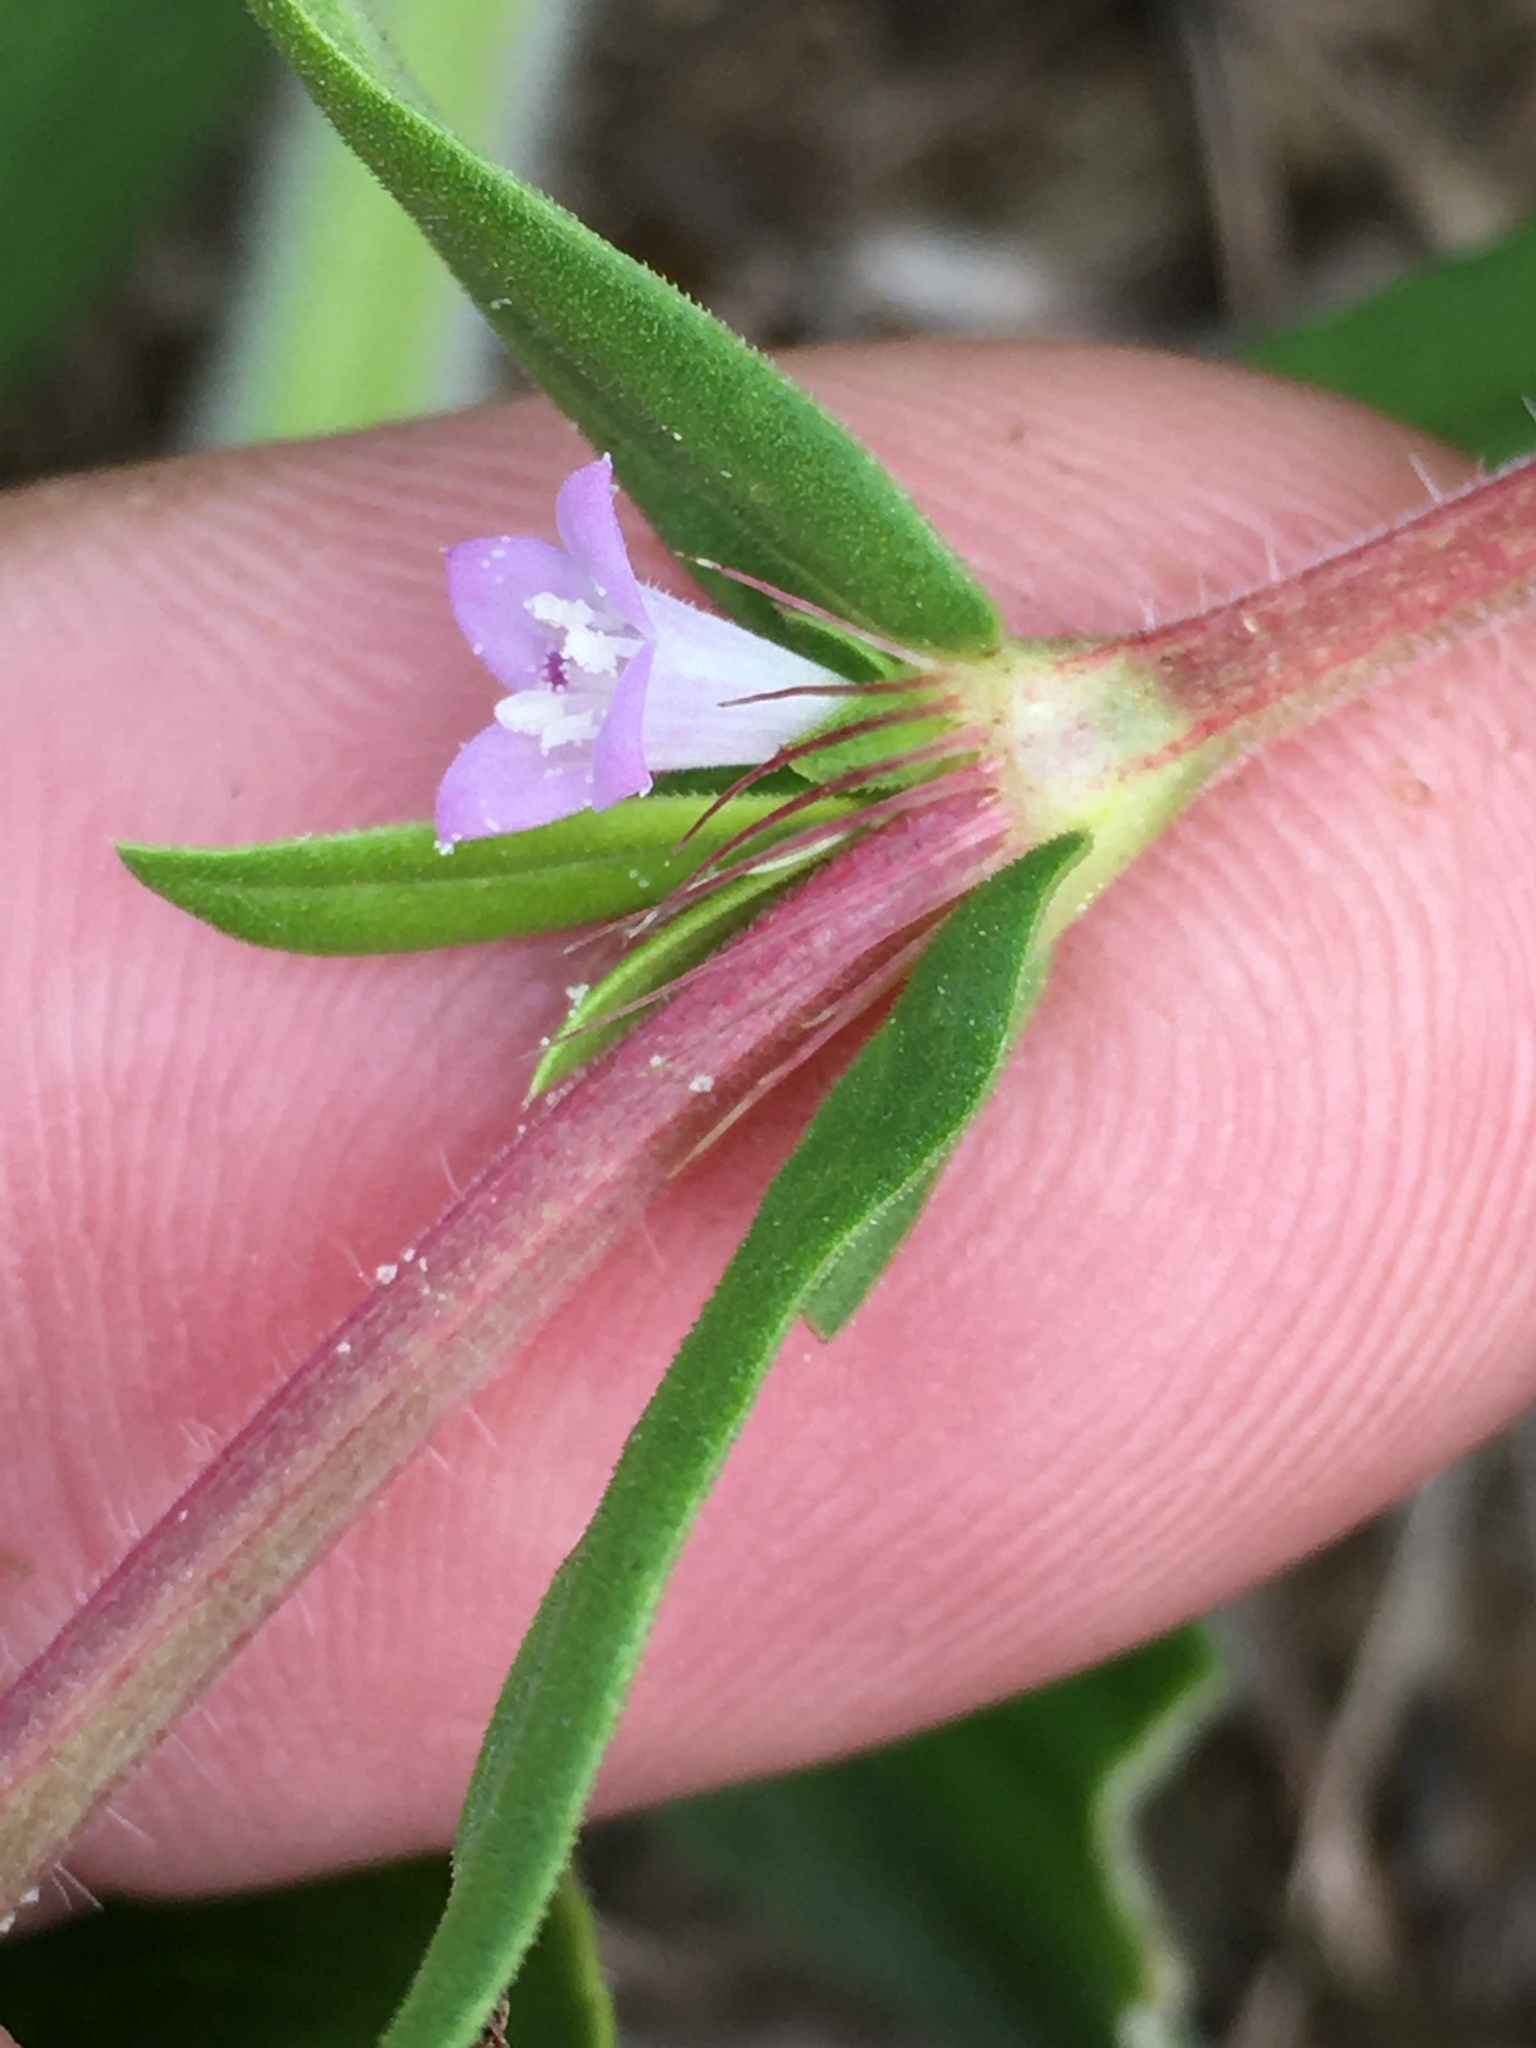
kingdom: Plantae
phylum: Tracheophyta
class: Magnoliopsida
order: Gentianales
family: Rubiaceae
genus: Hexasepalum
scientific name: Hexasepalum teres
